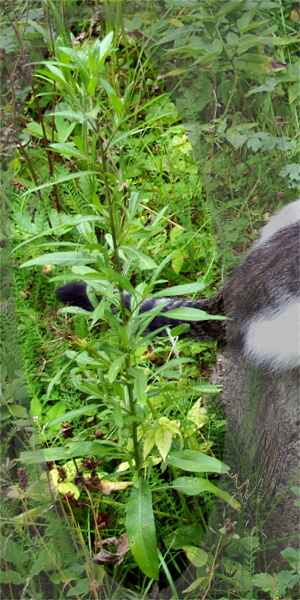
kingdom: Plantae
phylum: Tracheophyta
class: Magnoliopsida
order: Asterales
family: Asteraceae
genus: Cirsium
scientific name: Cirsium arvense
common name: Creeping thistle
